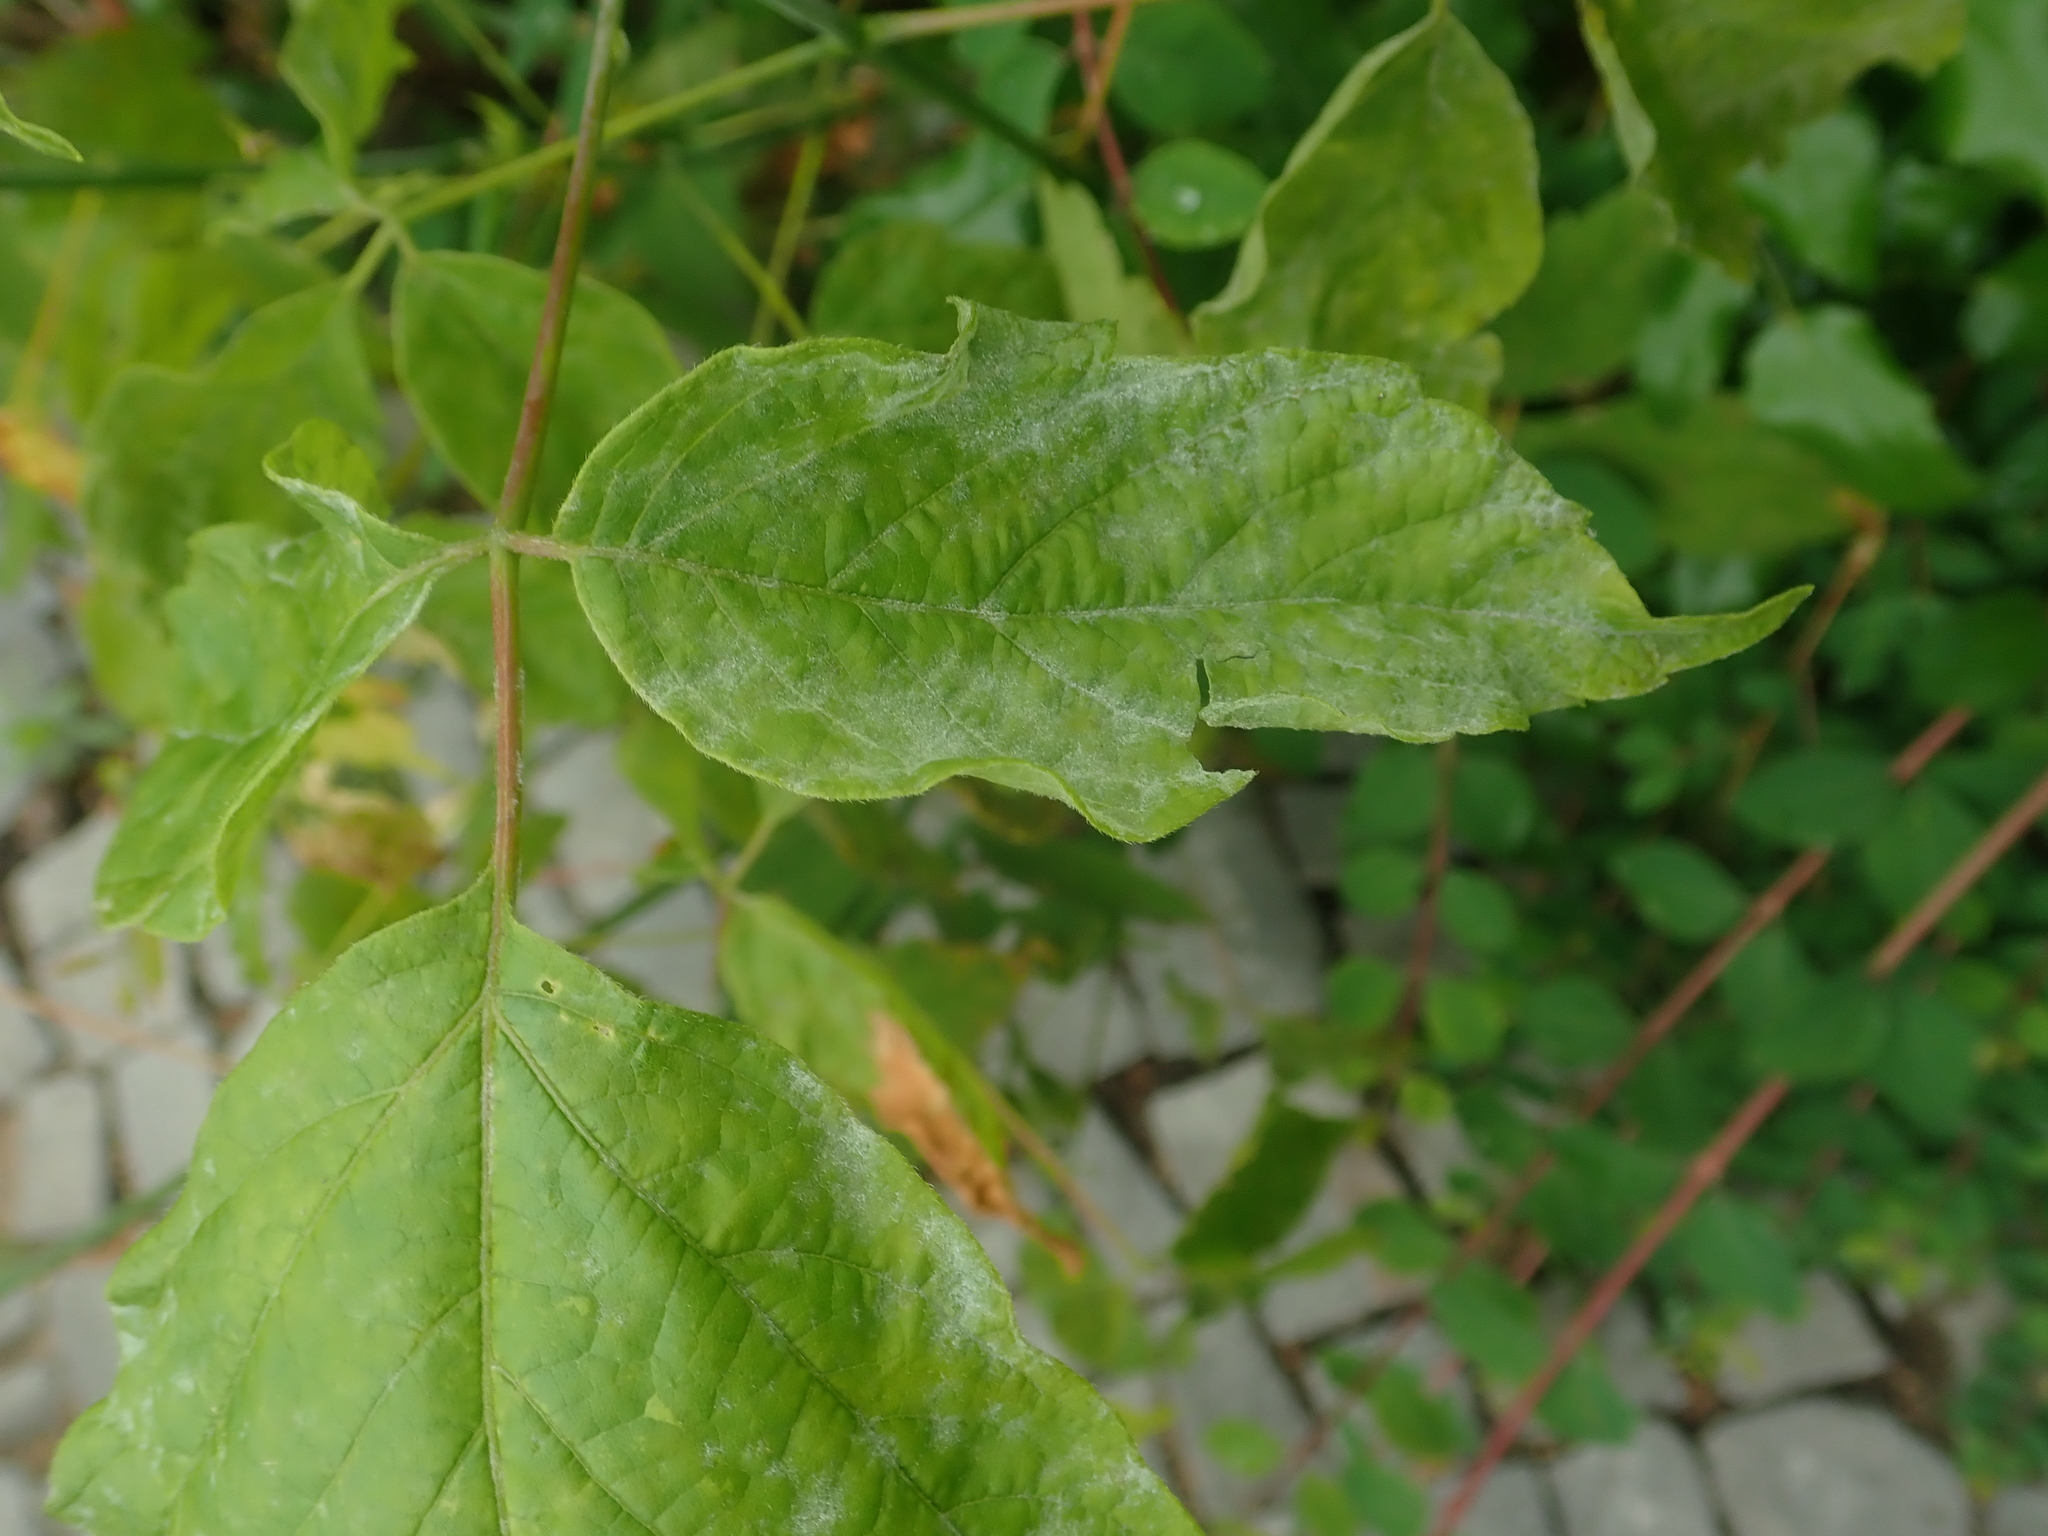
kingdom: Fungi
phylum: Ascomycota
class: Leotiomycetes
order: Helotiales
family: Erysiphaceae
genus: Sawadaea
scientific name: Sawadaea bicornis
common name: Maple mildew
